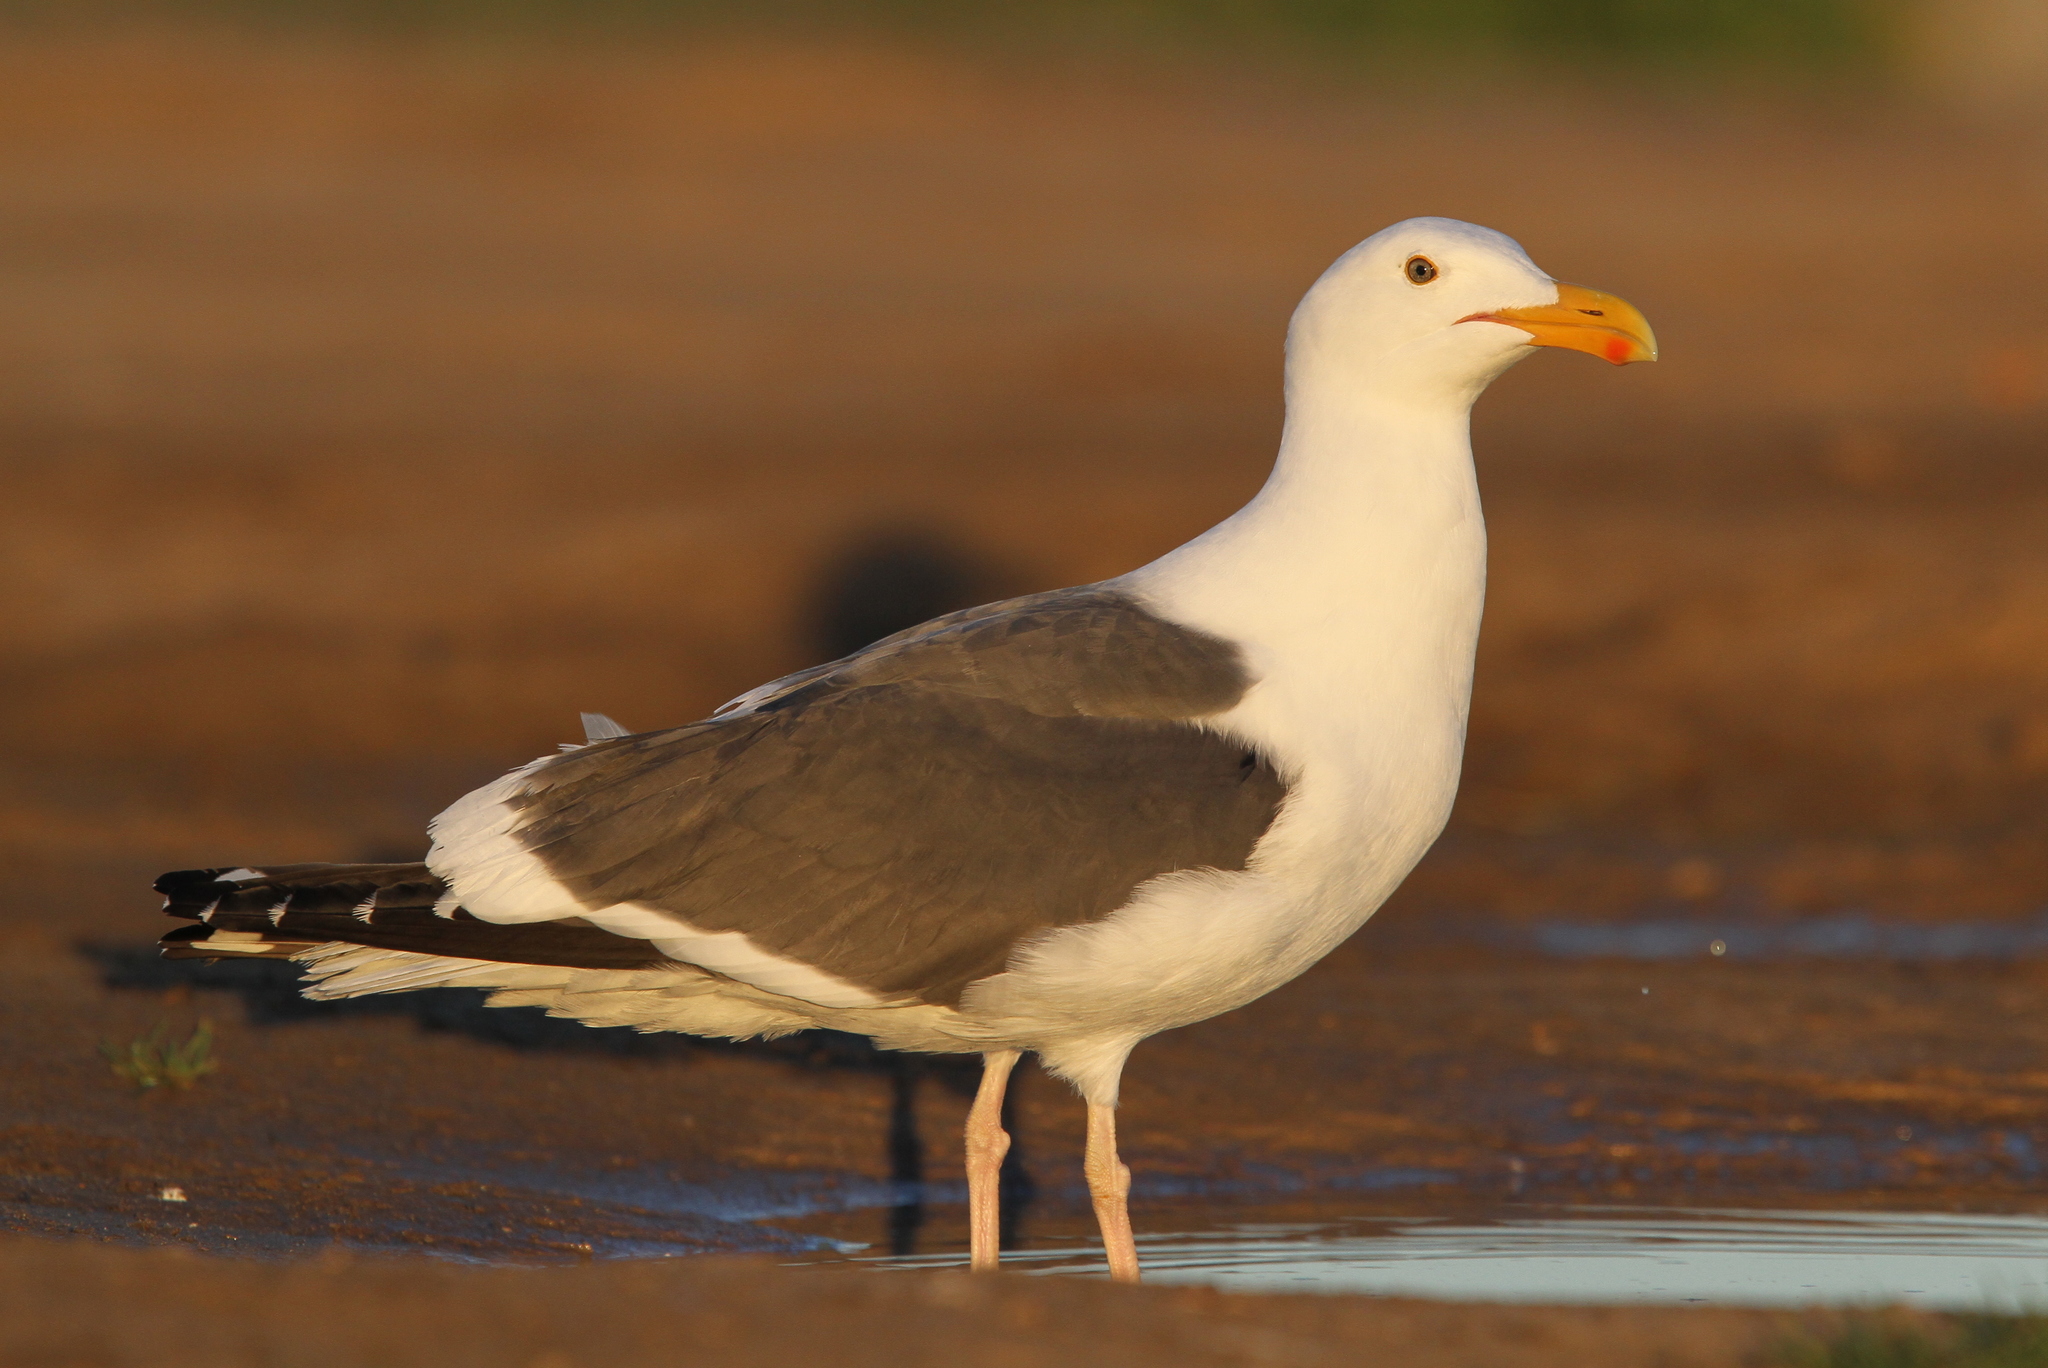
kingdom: Animalia
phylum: Chordata
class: Aves
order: Charadriiformes
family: Laridae
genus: Larus
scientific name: Larus occidentalis
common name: Western gull
